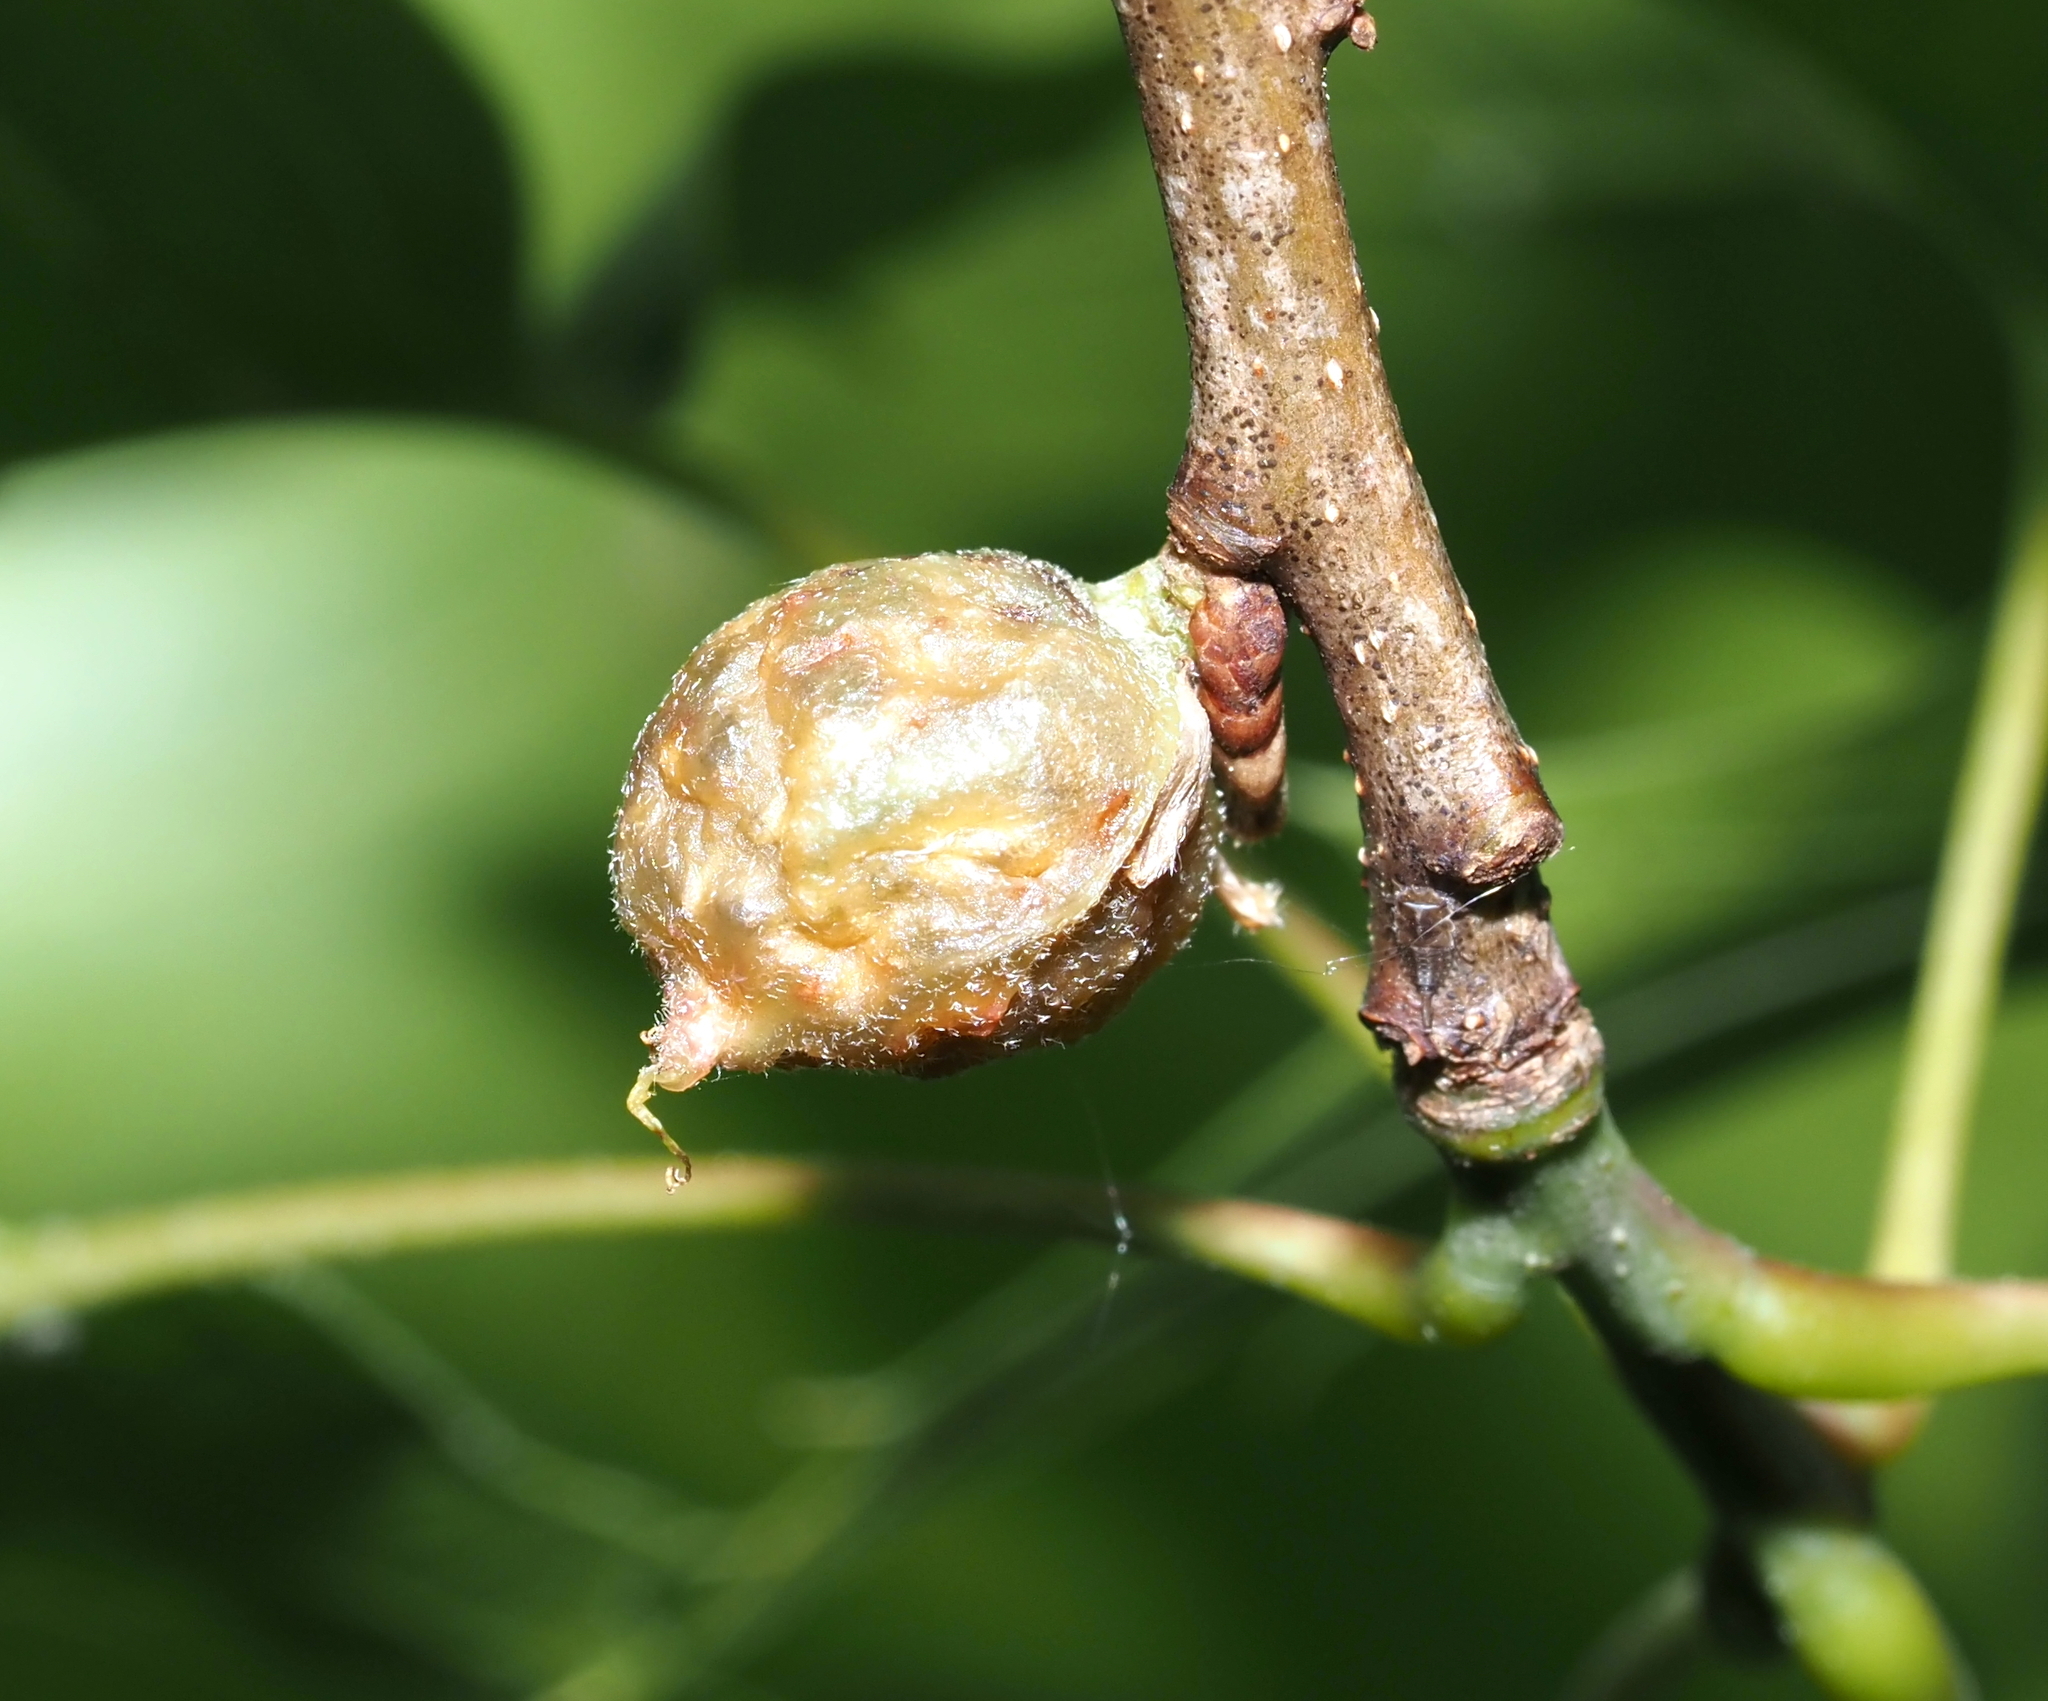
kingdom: Animalia
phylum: Arthropoda
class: Insecta
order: Hymenoptera
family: Cynipidae
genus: Dryocosmus
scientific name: Dryocosmus quercuspalustris
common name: Succulent oak gall wasp
